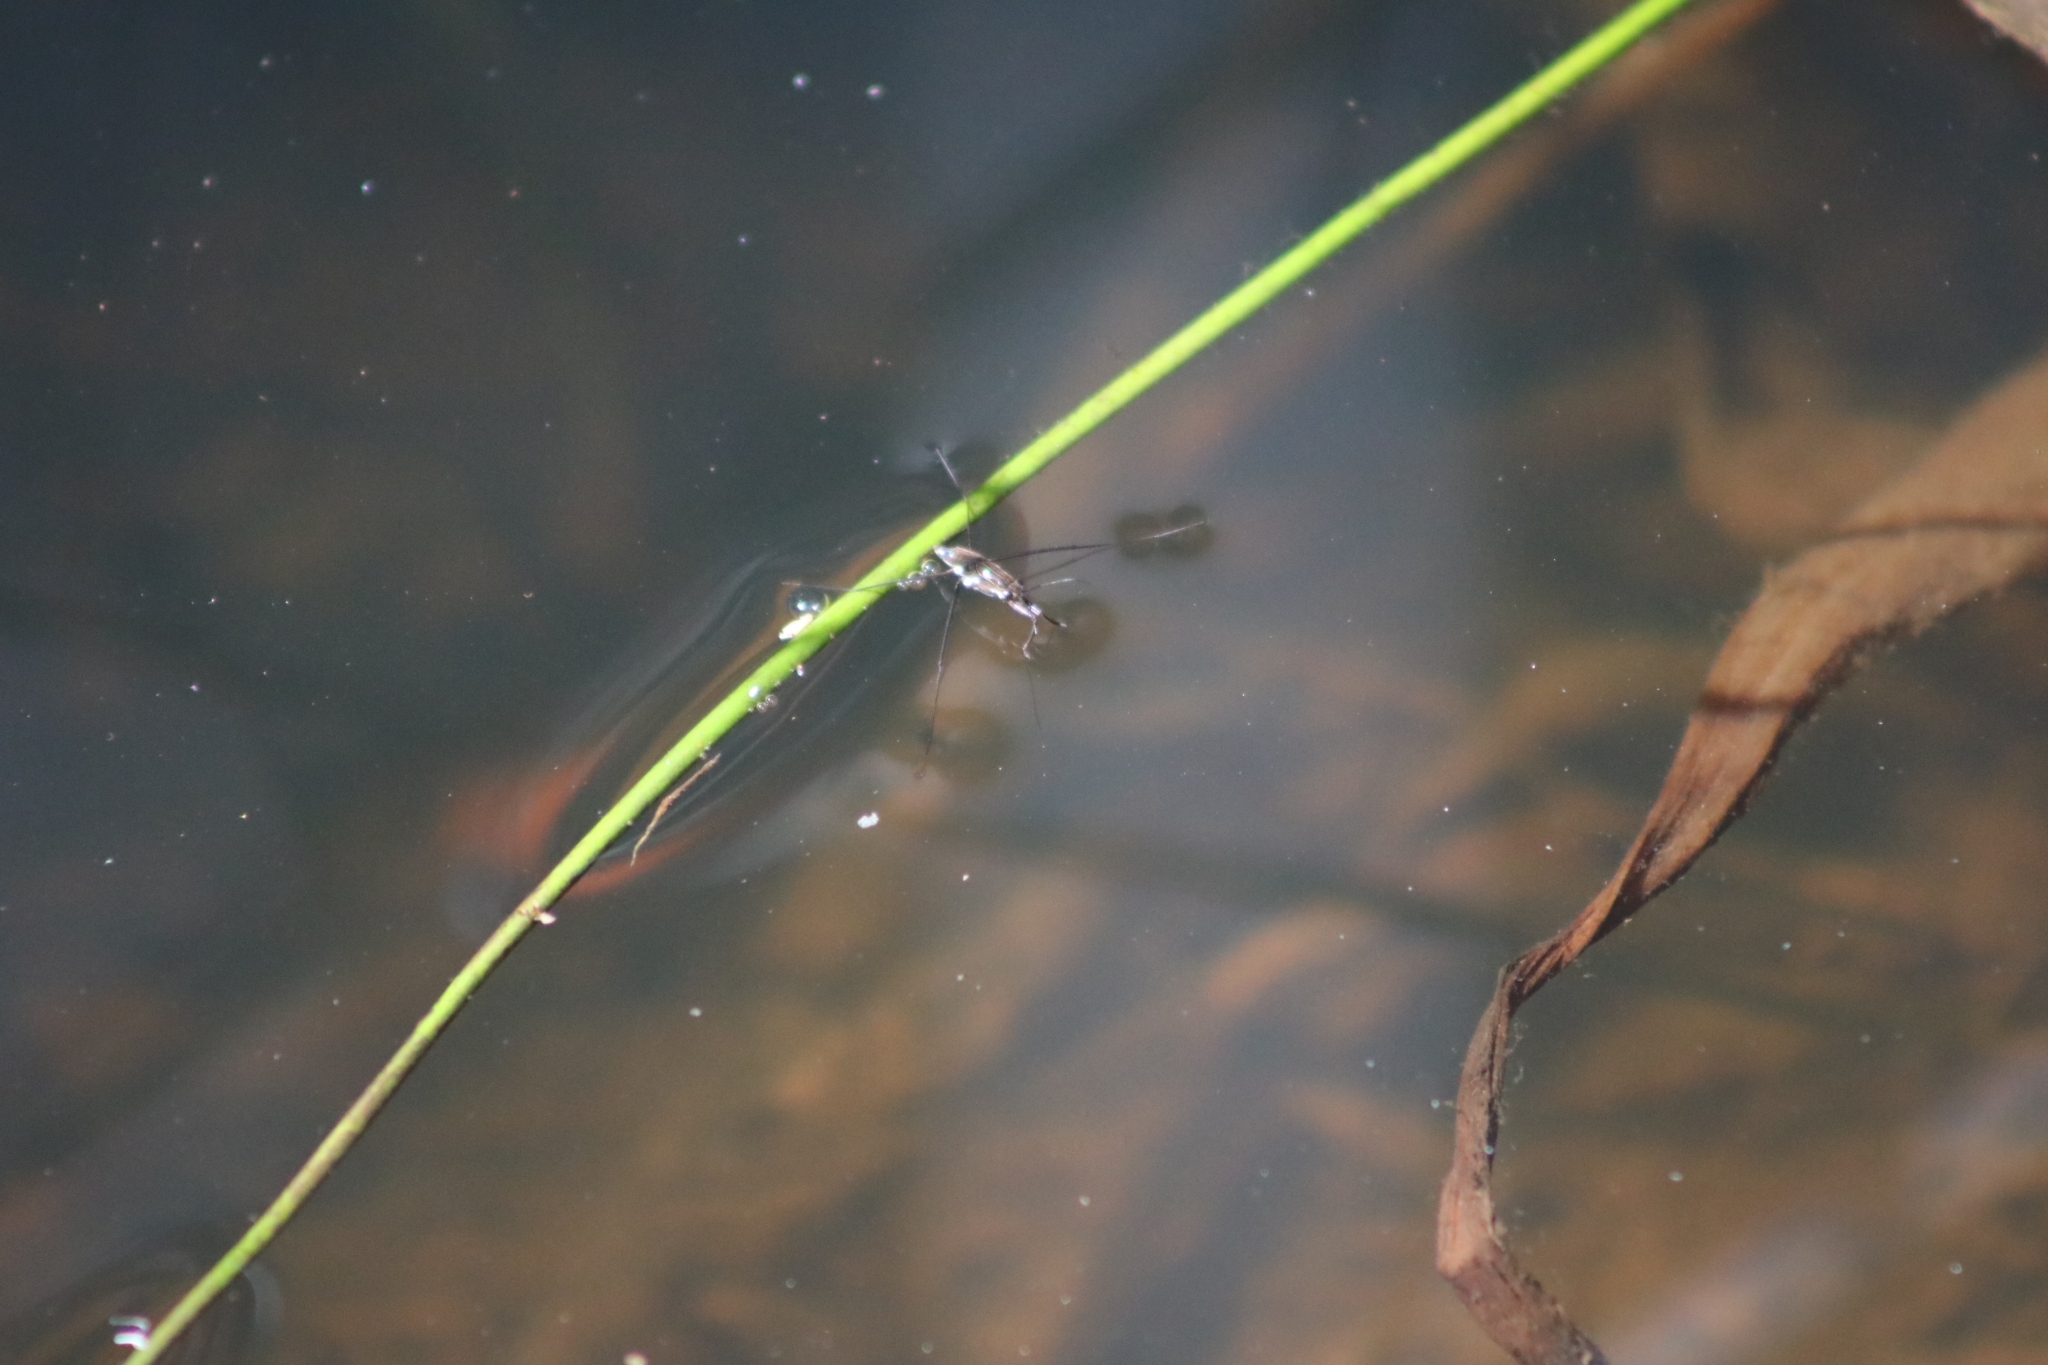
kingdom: Animalia
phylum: Arthropoda
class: Insecta
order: Hemiptera
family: Gerridae
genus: Tenagogerris
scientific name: Tenagogerris euphrosyne
